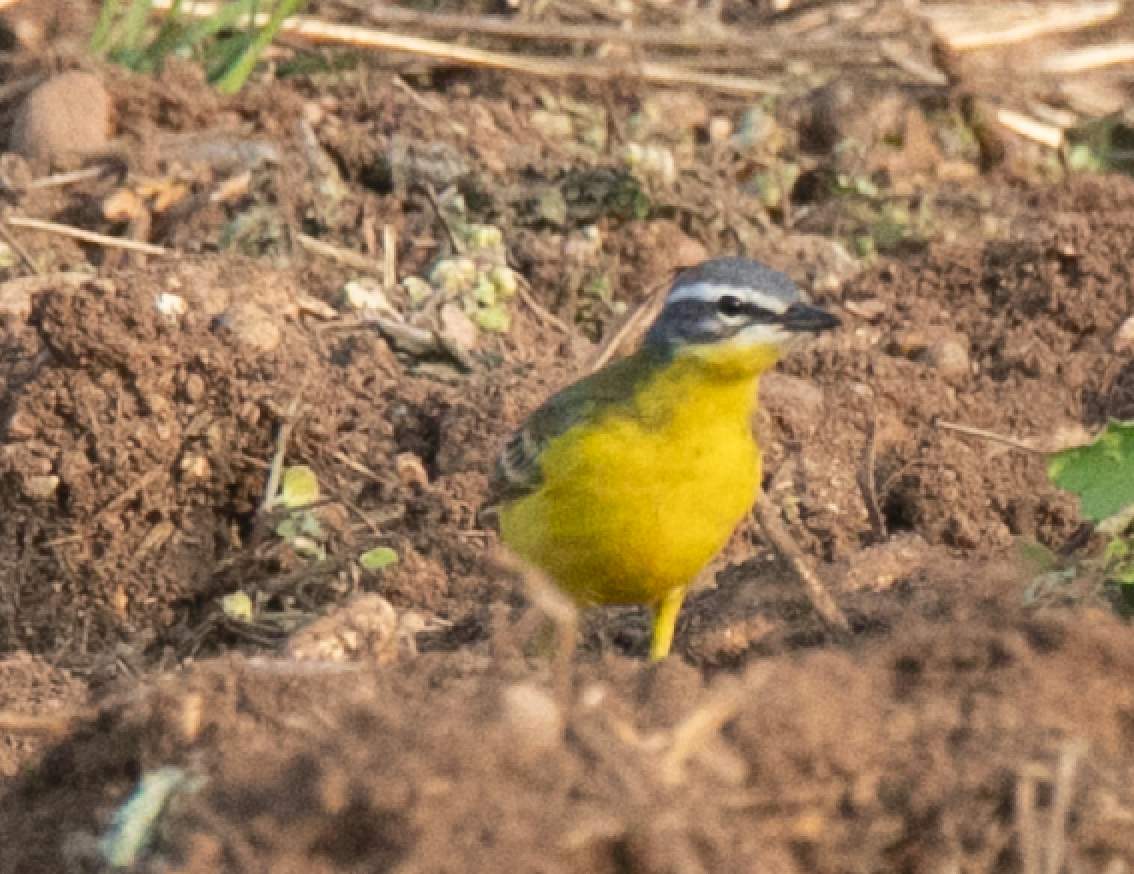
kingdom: Animalia
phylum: Chordata
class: Aves
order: Passeriformes
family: Motacillidae
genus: Motacilla
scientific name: Motacilla flava
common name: Western yellow wagtail
